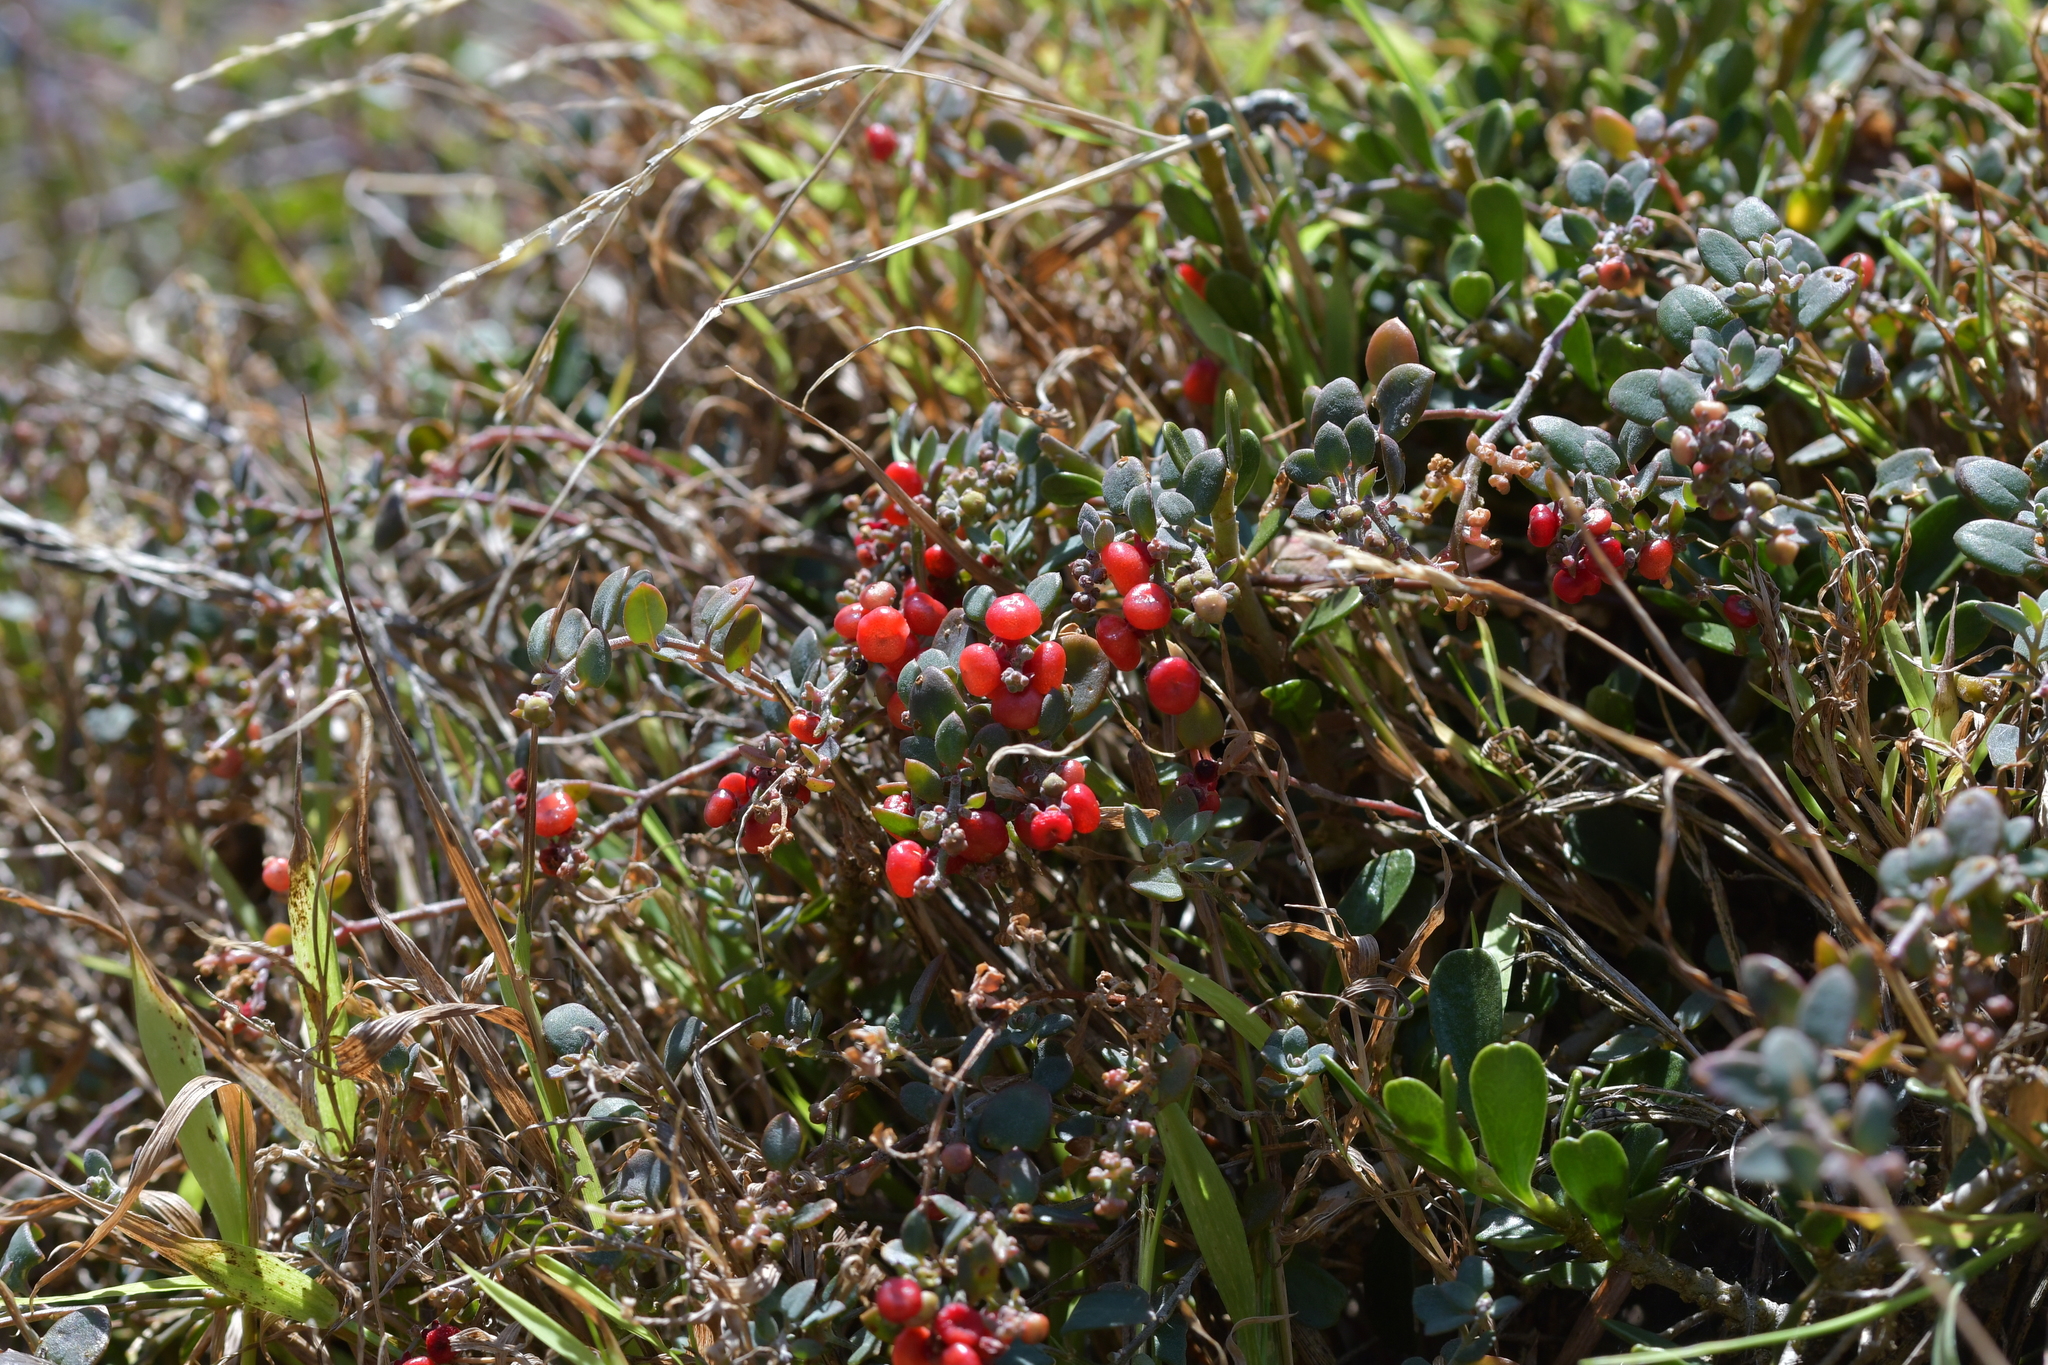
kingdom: Plantae
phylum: Tracheophyta
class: Magnoliopsida
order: Caryophyllales
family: Amaranthaceae
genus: Chenopodium
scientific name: Chenopodium triandrum
